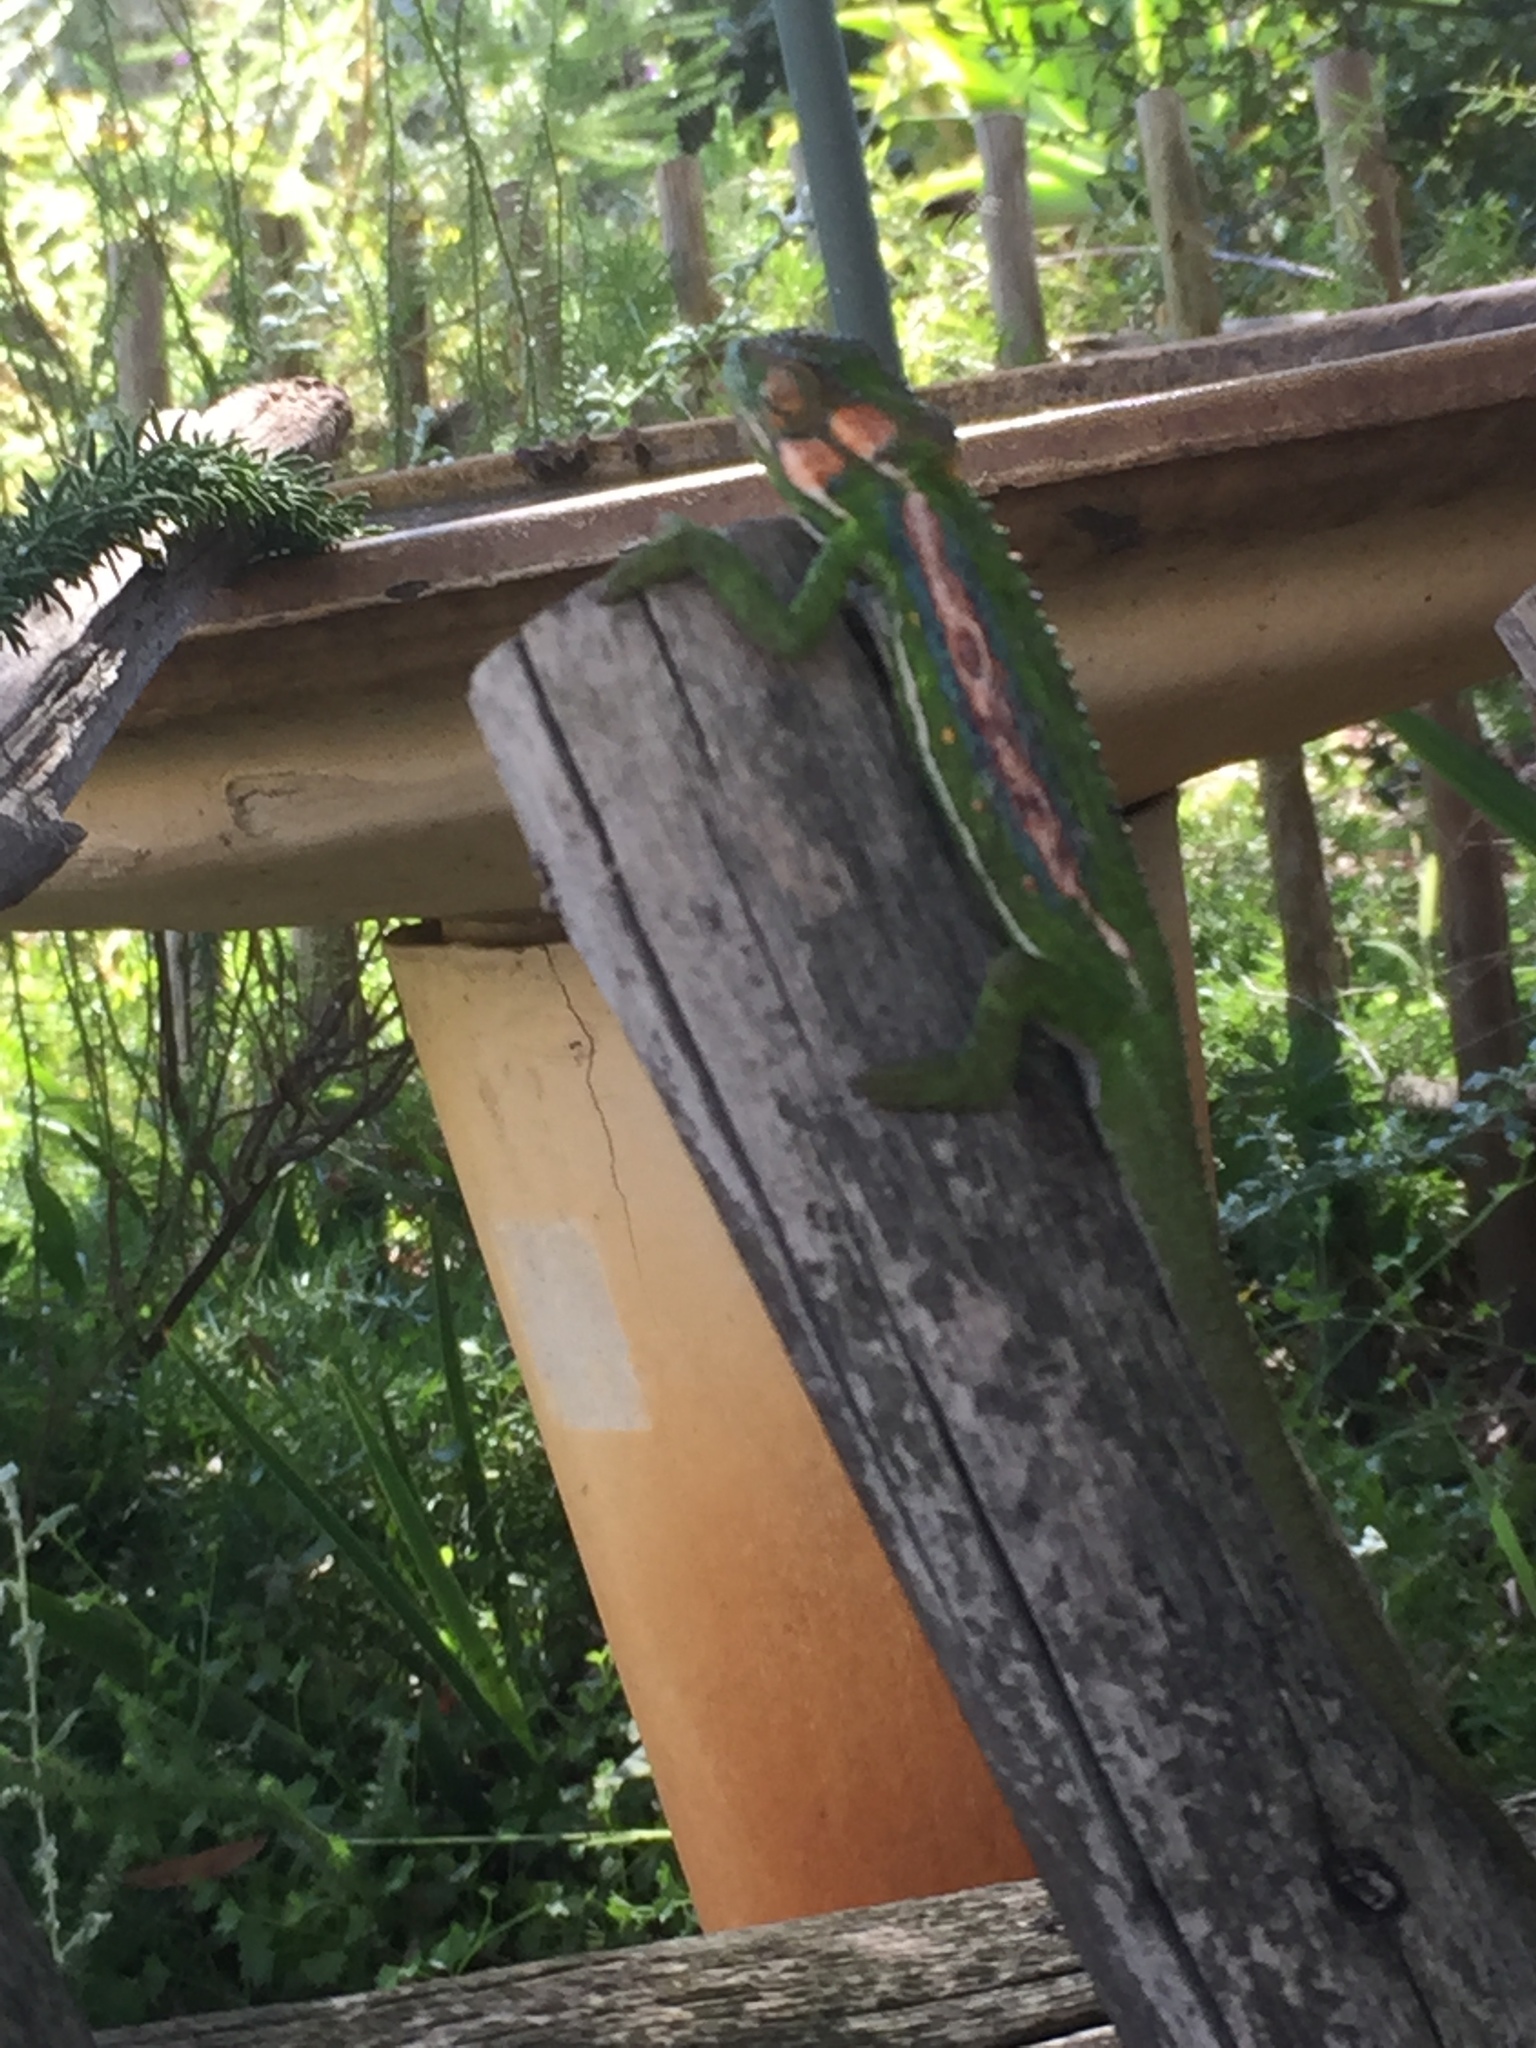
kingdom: Animalia
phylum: Chordata
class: Squamata
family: Chamaeleonidae
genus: Bradypodion
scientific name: Bradypodion pumilum
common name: Cape dwarf chameleon
